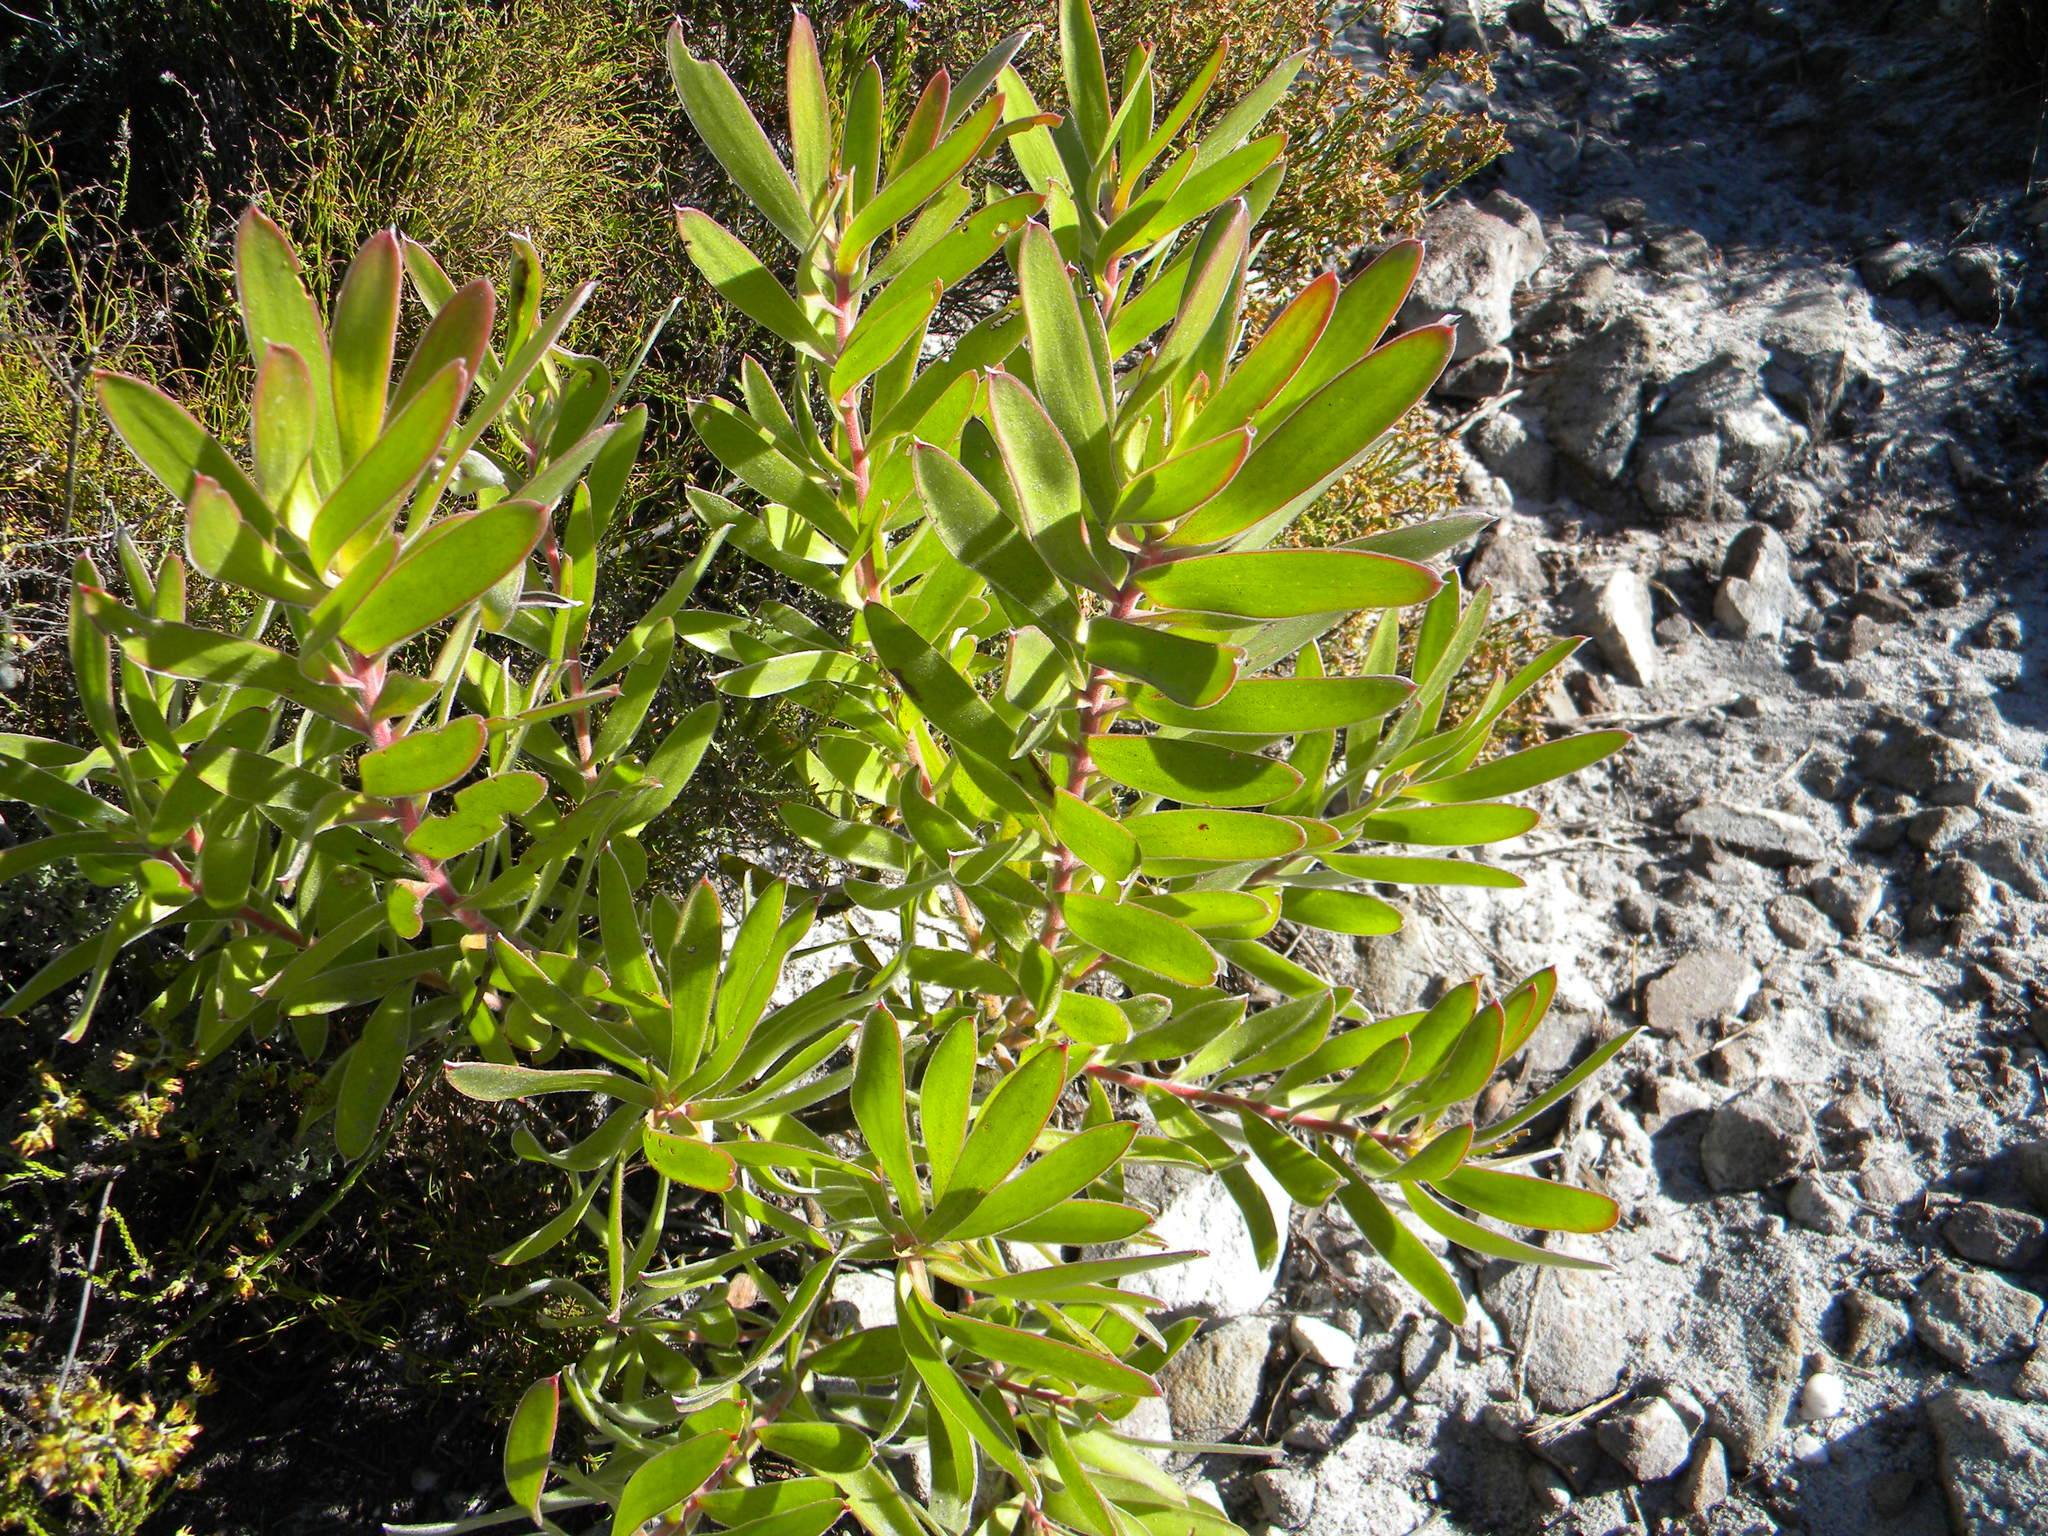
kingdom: Plantae
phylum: Tracheophyta
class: Magnoliopsida
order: Proteales
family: Proteaceae
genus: Leucadendron
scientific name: Leucadendron laureolum
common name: Golden sunshinebush
